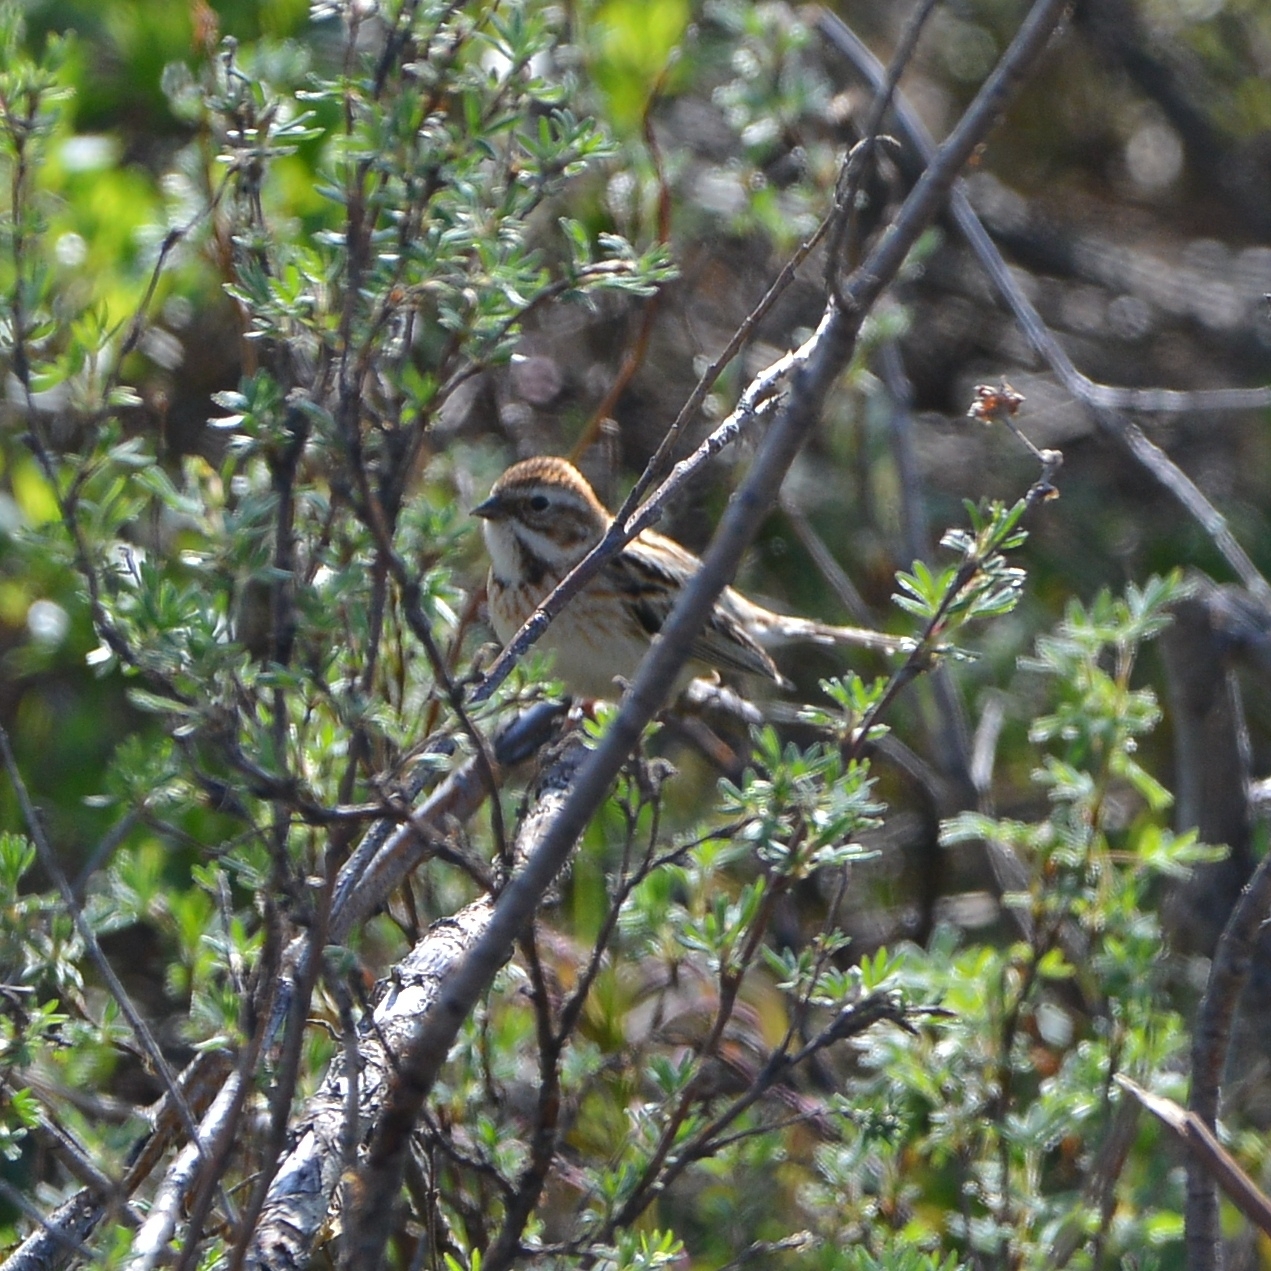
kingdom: Animalia
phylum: Chordata
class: Aves
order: Passeriformes
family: Emberizidae
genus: Emberiza
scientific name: Emberiza pallasi
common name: Pallas's reed bunting
